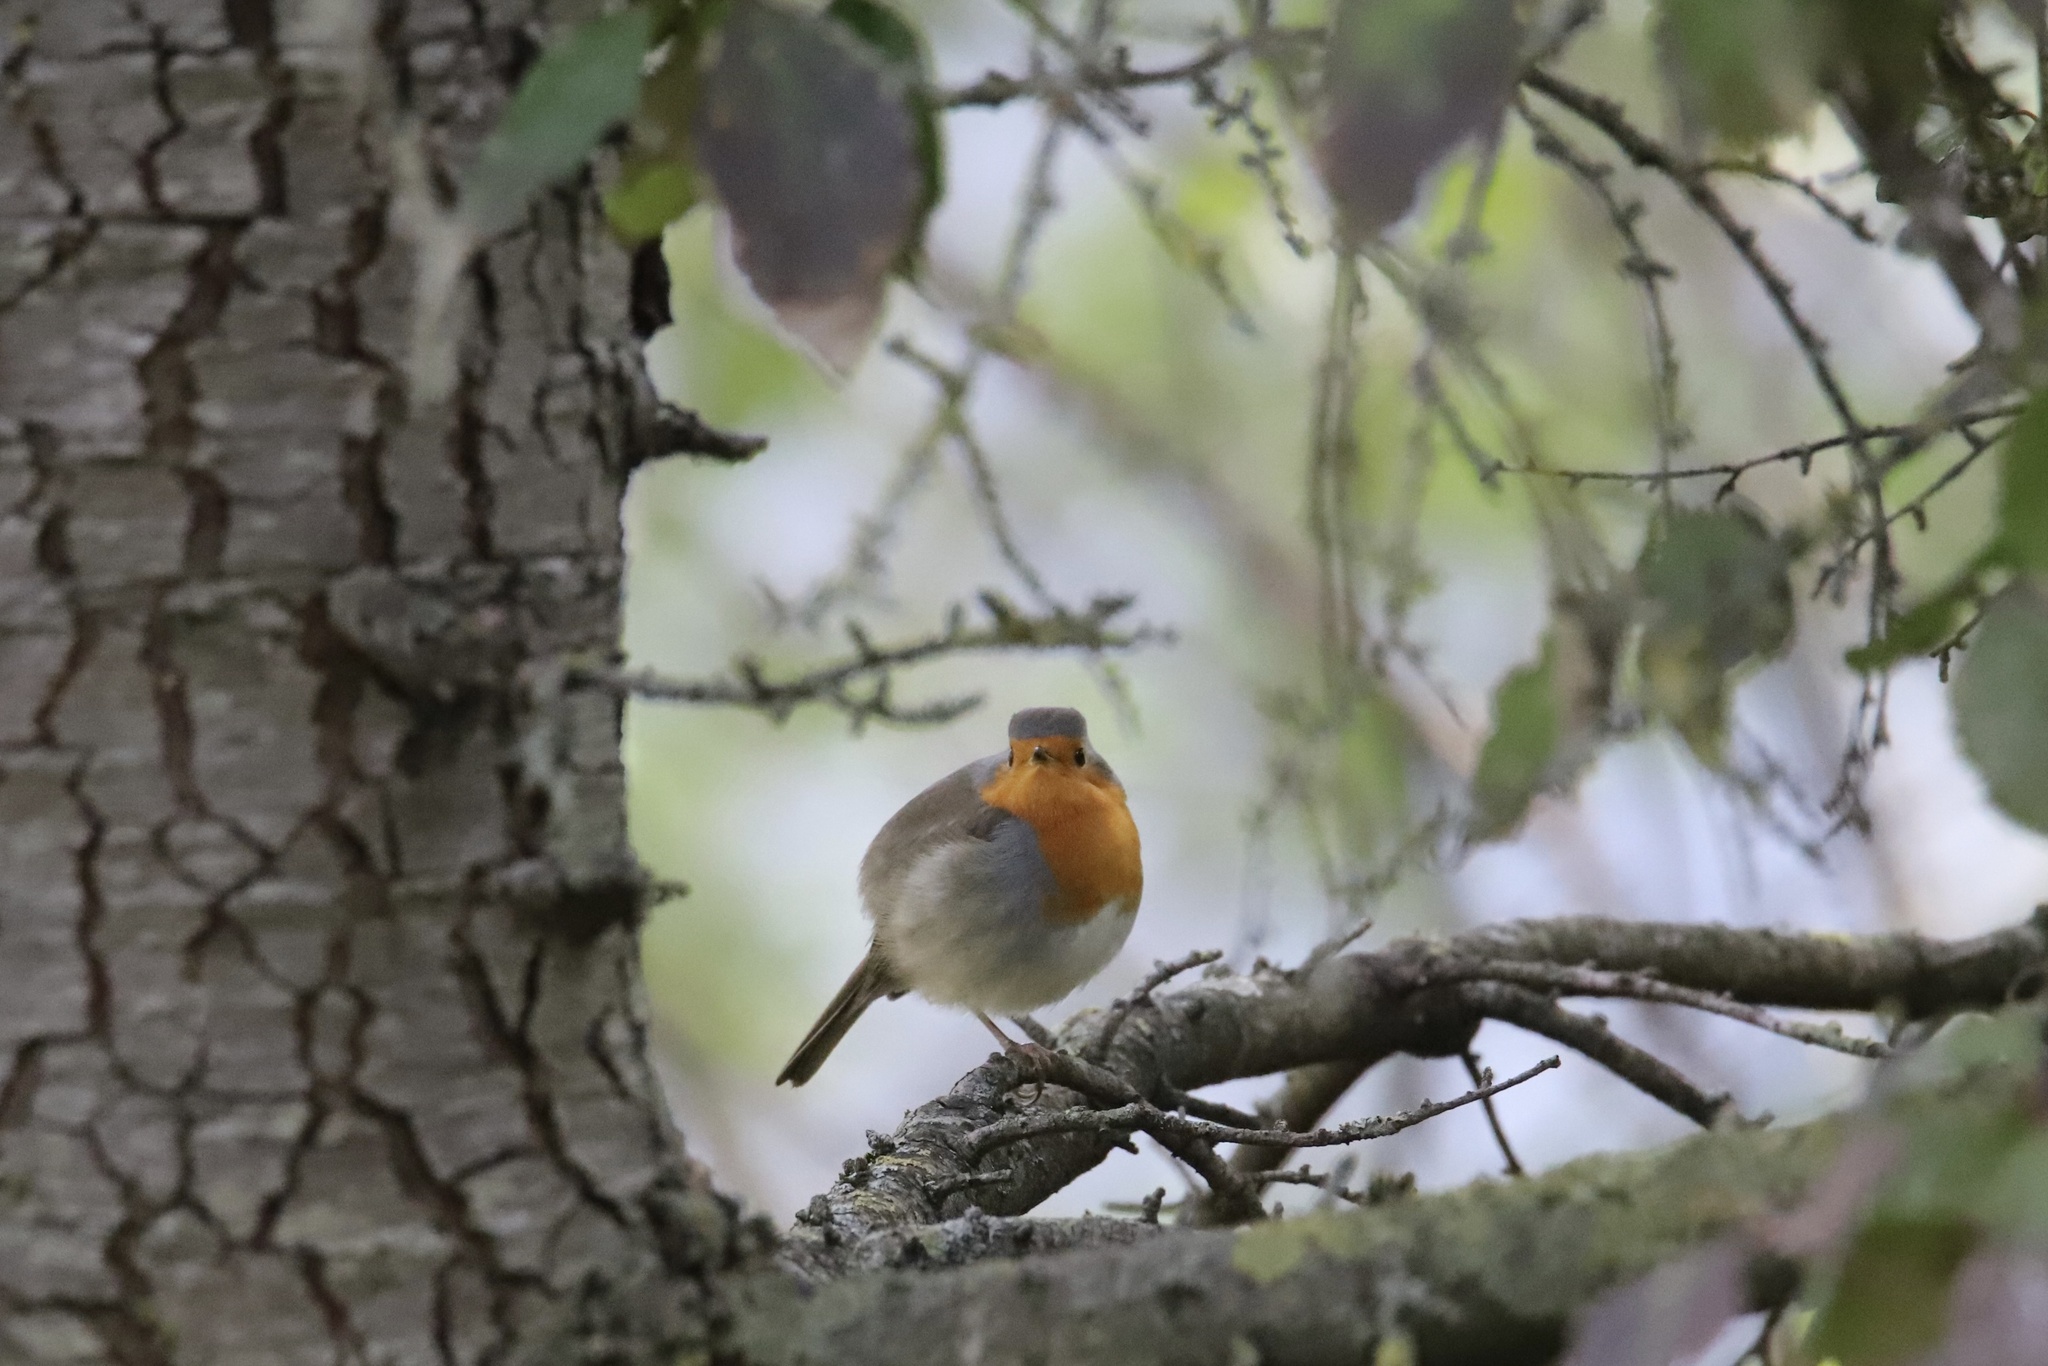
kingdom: Animalia
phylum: Chordata
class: Aves
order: Passeriformes
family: Muscicapidae
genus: Erithacus
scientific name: Erithacus rubecula
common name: European robin
